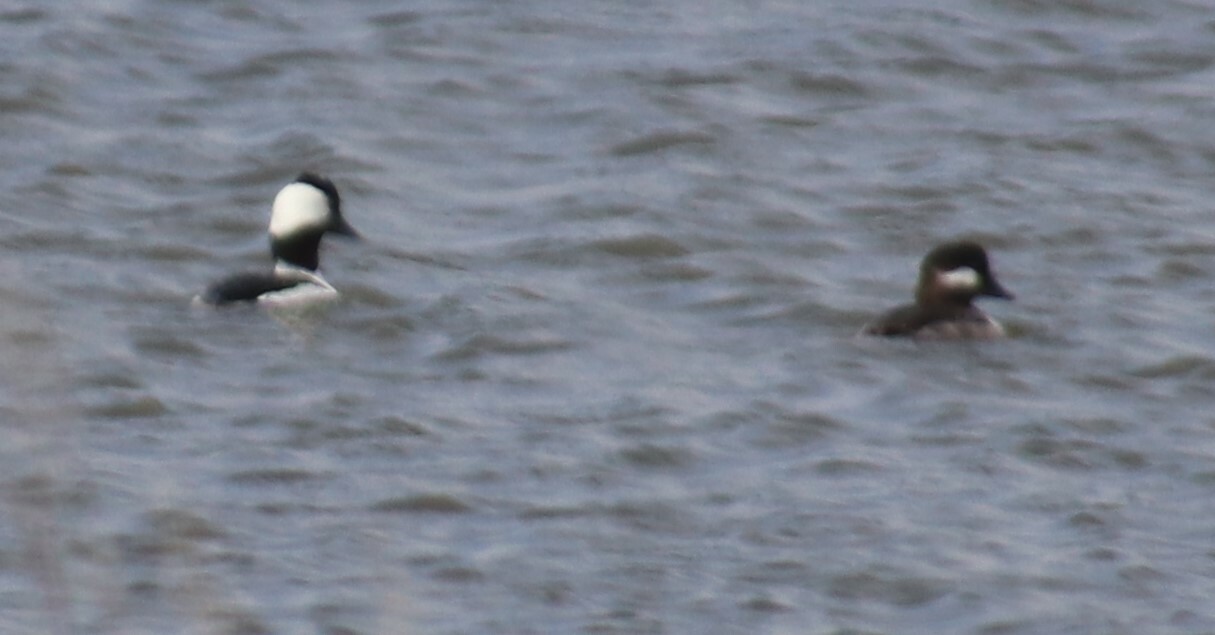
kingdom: Animalia
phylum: Chordata
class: Aves
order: Anseriformes
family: Anatidae
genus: Bucephala
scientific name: Bucephala albeola
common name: Bufflehead
